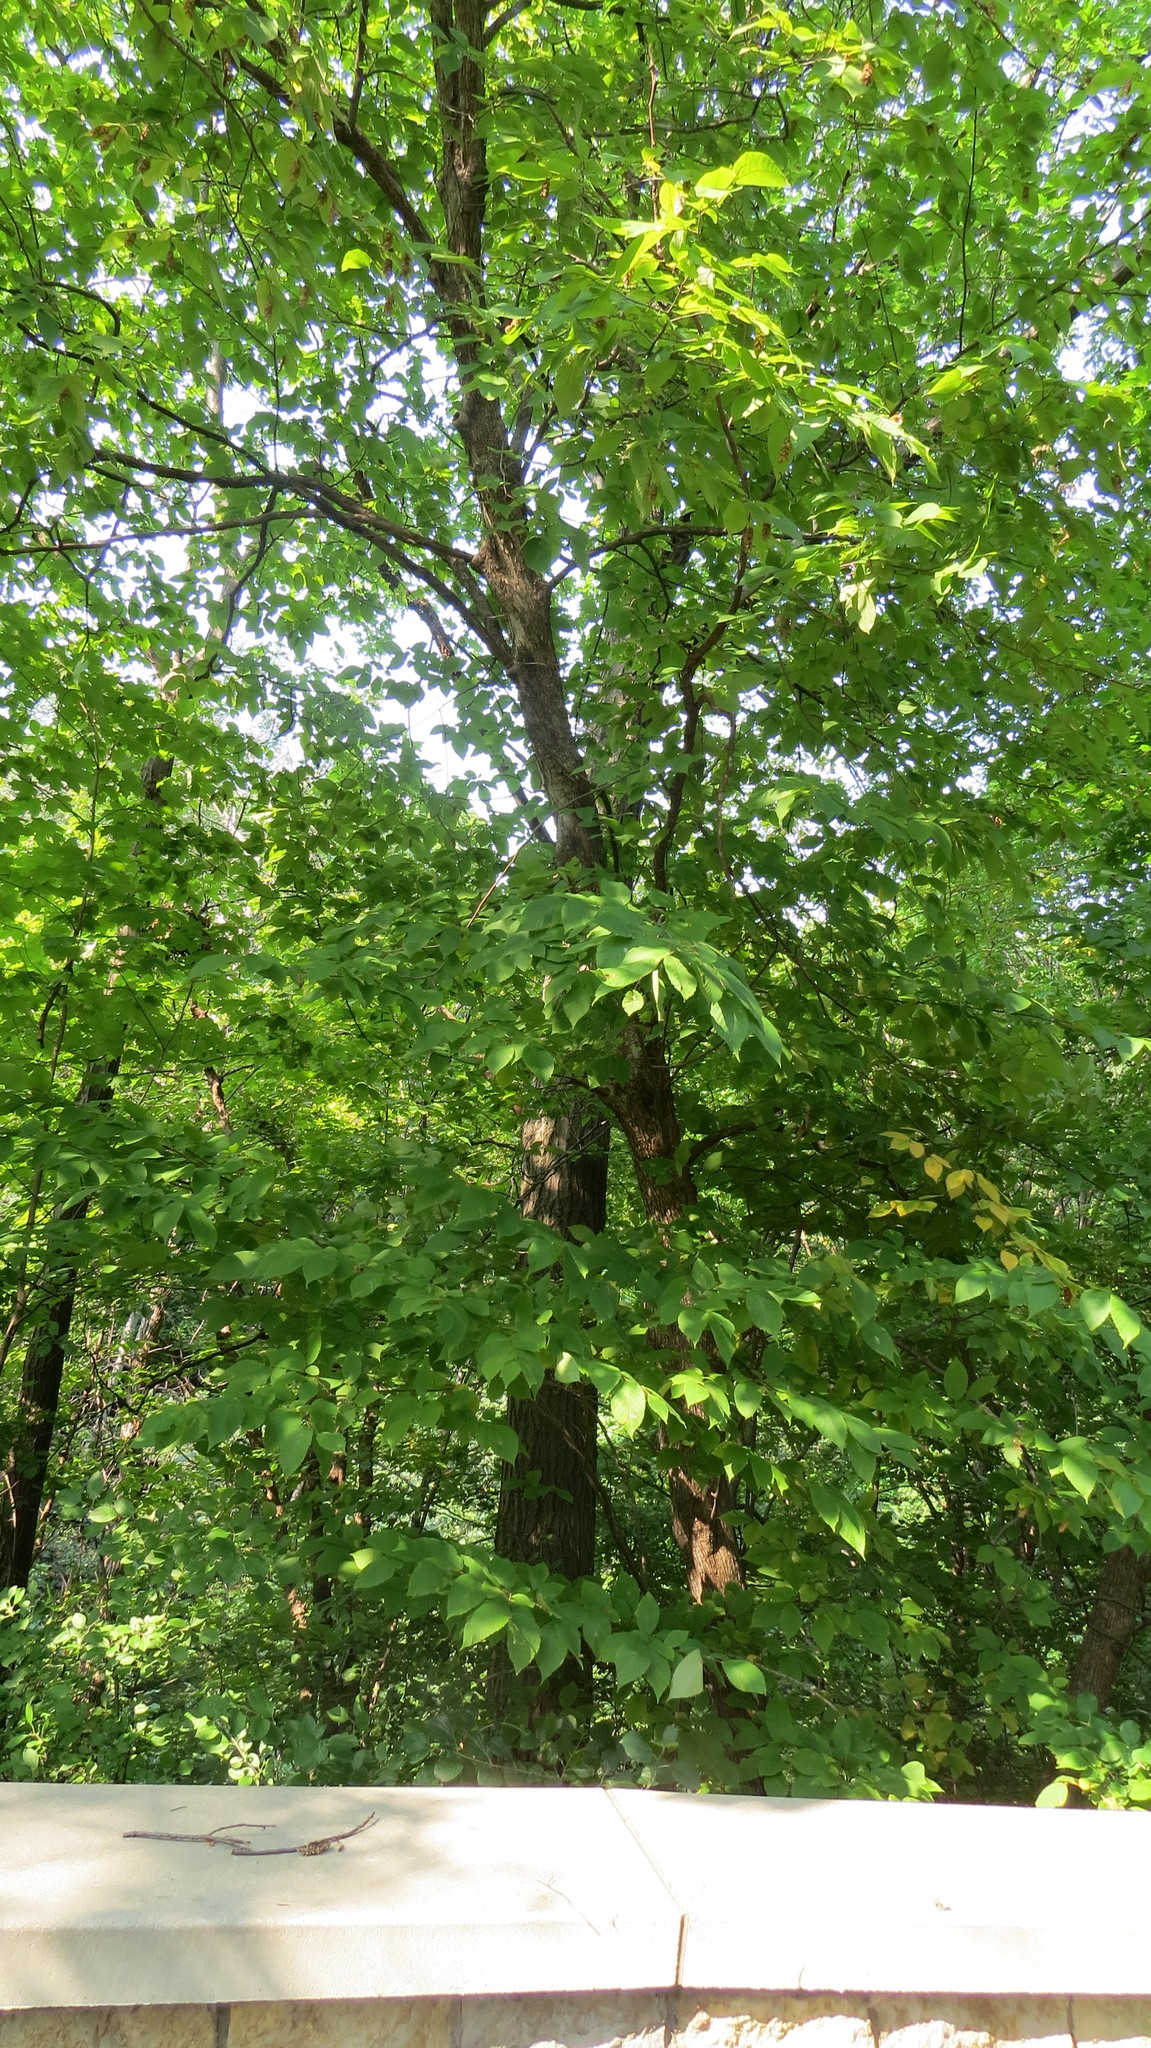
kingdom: Plantae
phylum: Tracheophyta
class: Magnoliopsida
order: Fagales
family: Betulaceae
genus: Ostrya
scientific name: Ostrya virginiana
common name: Ironwood
